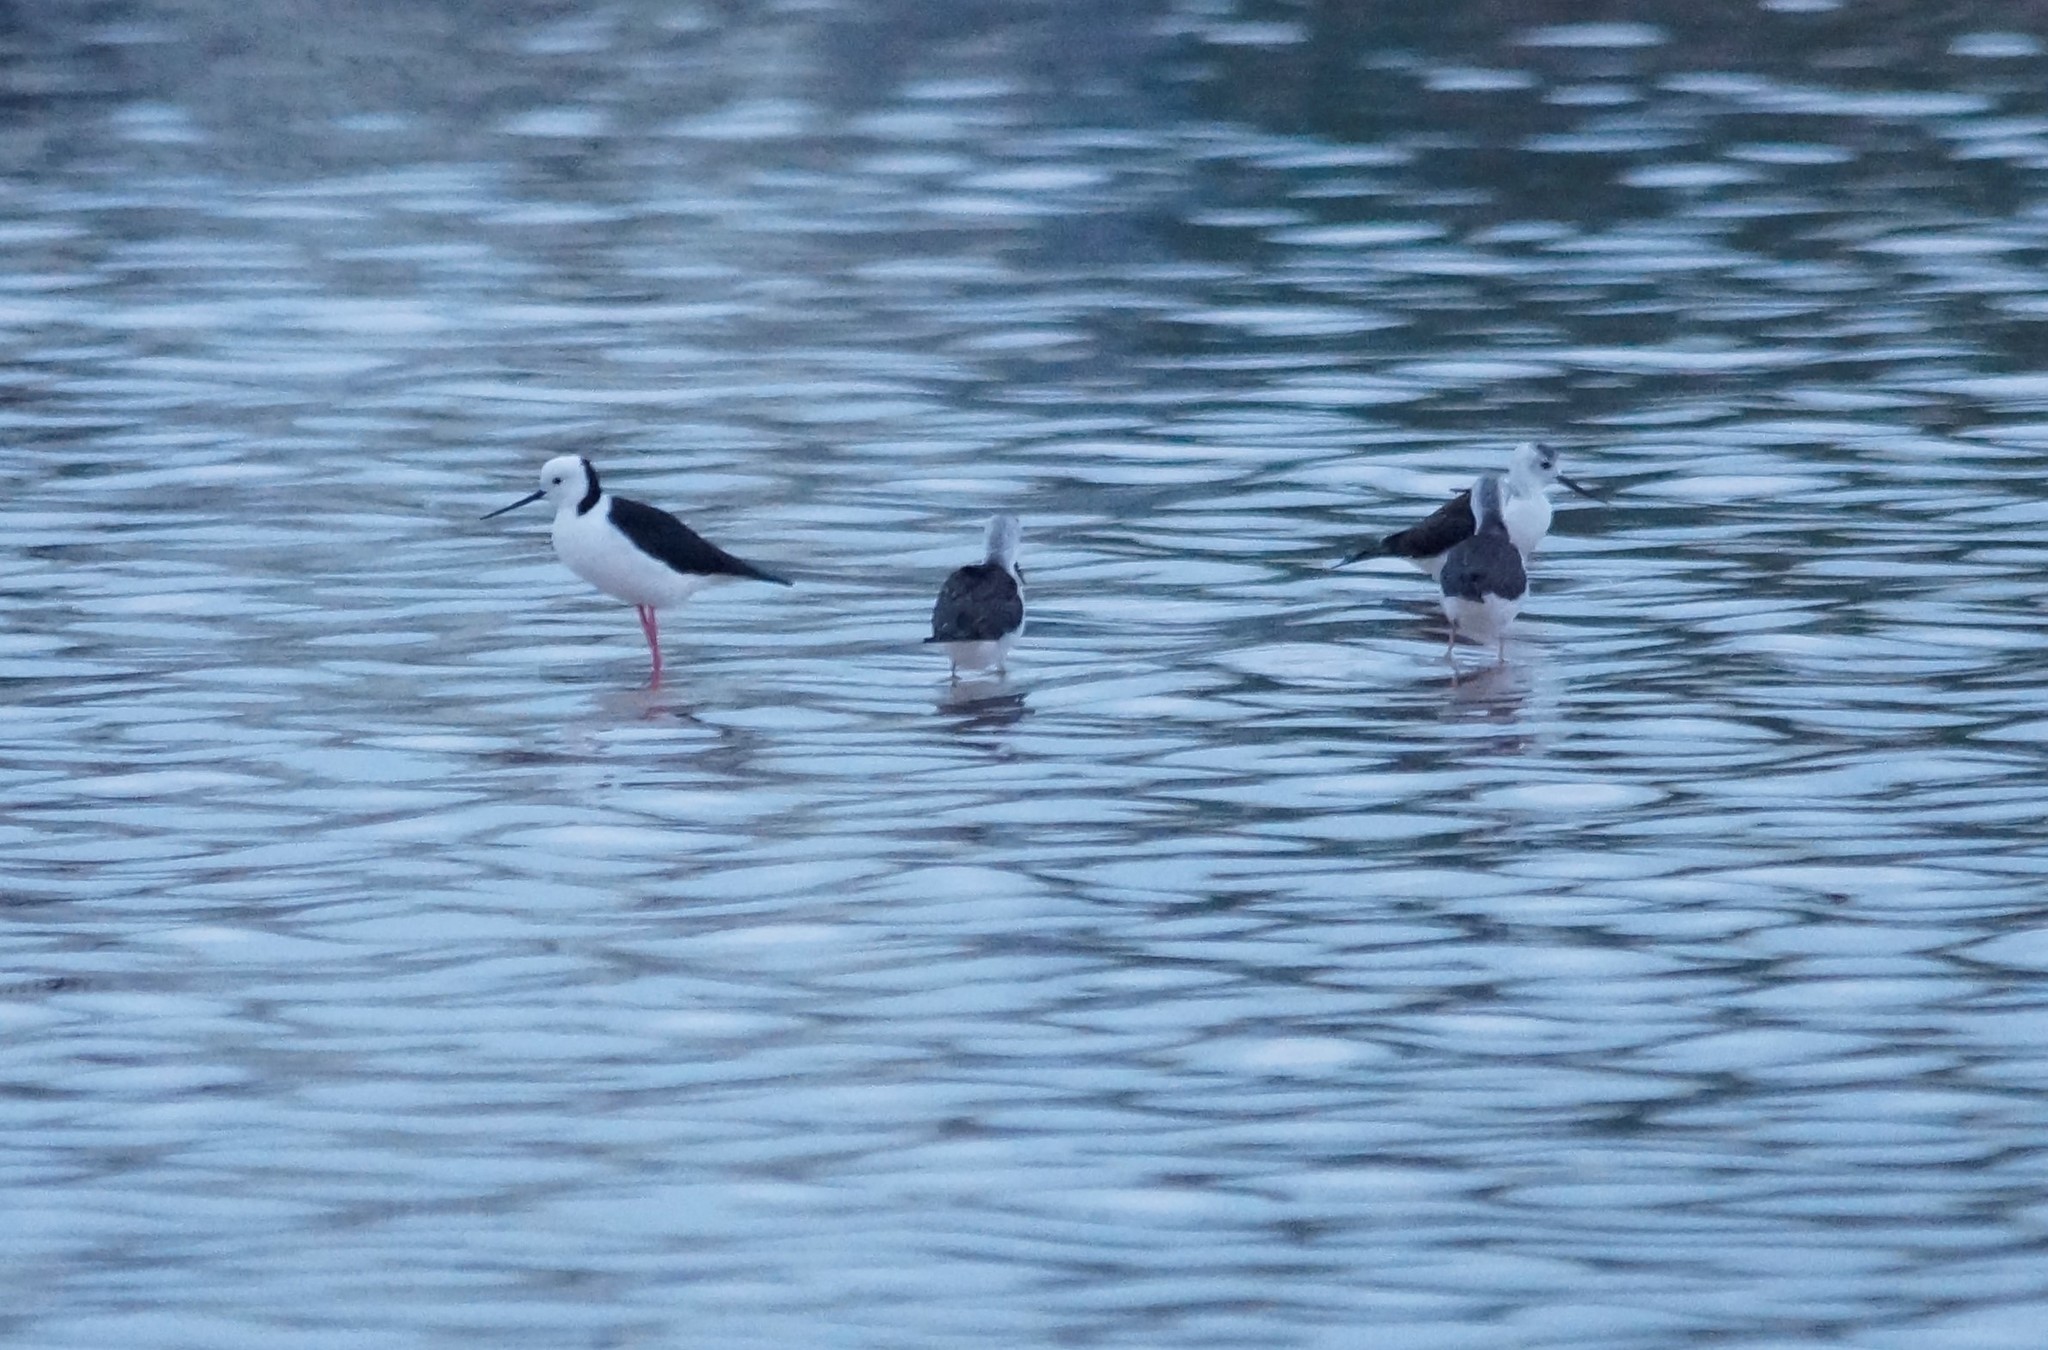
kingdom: Animalia
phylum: Chordata
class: Aves
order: Charadriiformes
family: Recurvirostridae
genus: Himantopus
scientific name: Himantopus leucocephalus
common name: White-headed stilt
